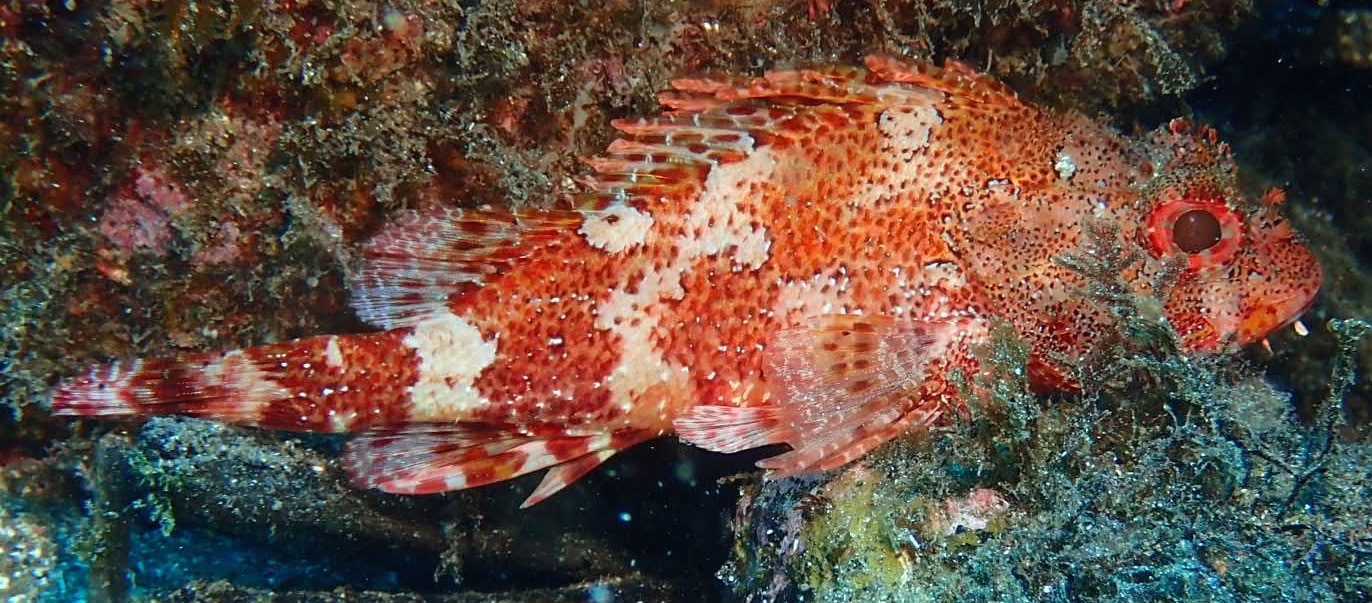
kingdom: Animalia
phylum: Chordata
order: Scorpaeniformes
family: Scorpaenidae
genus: Scorpaena
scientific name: Scorpaena maderensis
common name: Madeira rockfish
